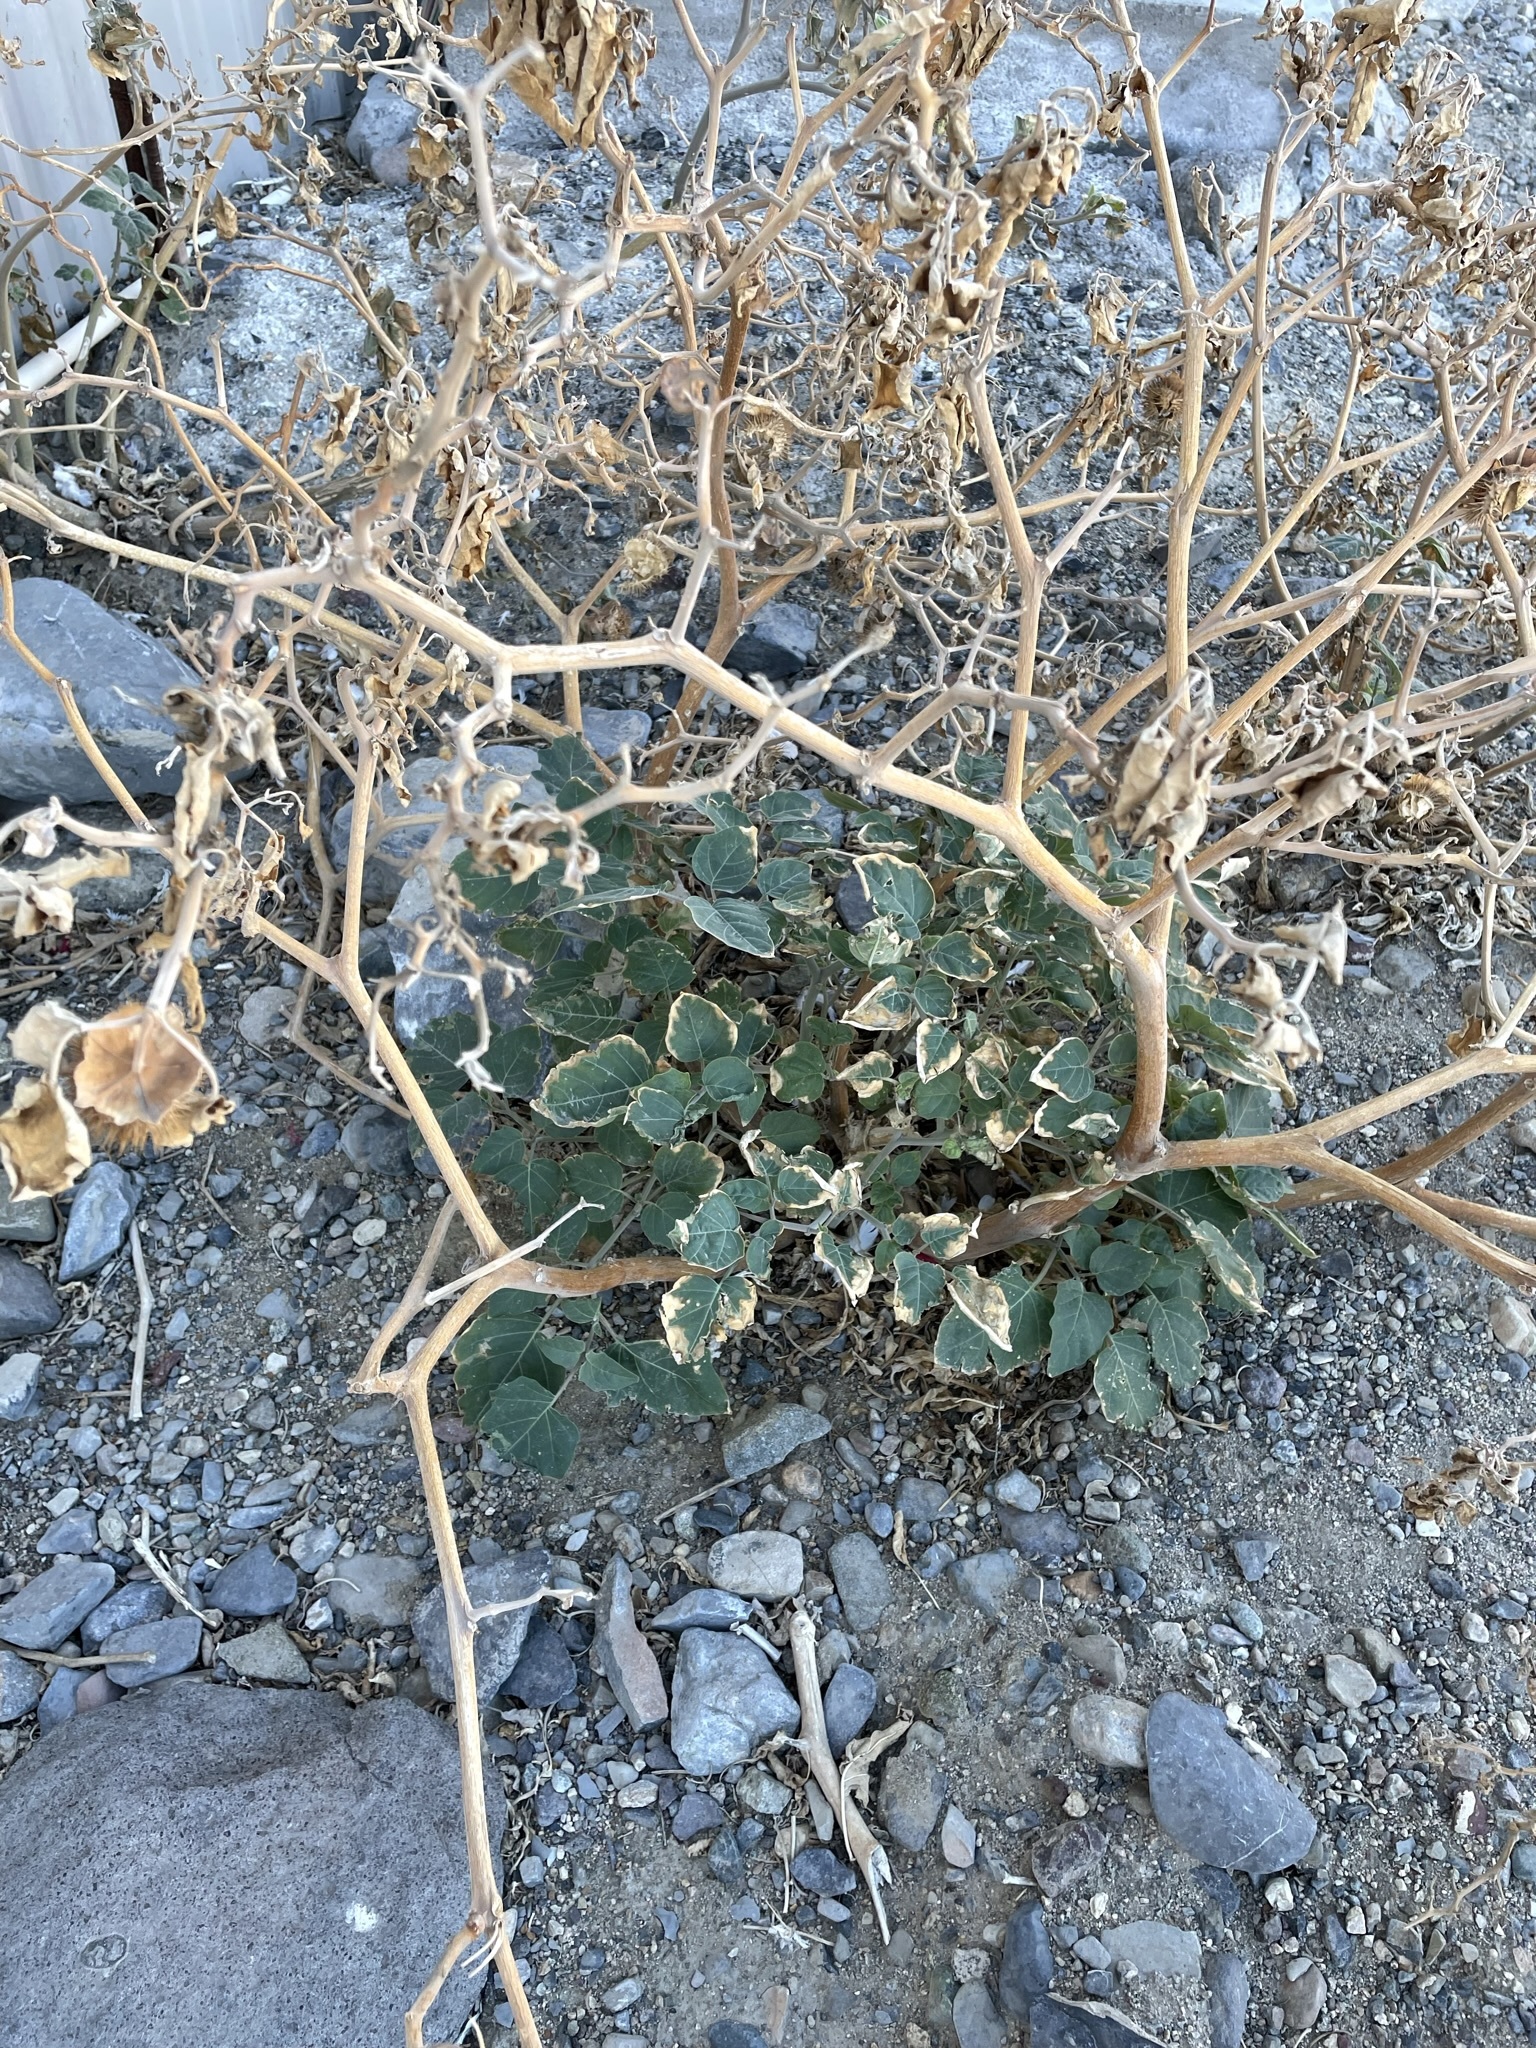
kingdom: Plantae
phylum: Tracheophyta
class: Magnoliopsida
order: Solanales
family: Solanaceae
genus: Datura
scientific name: Datura wrightii
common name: Sacred thorn-apple
